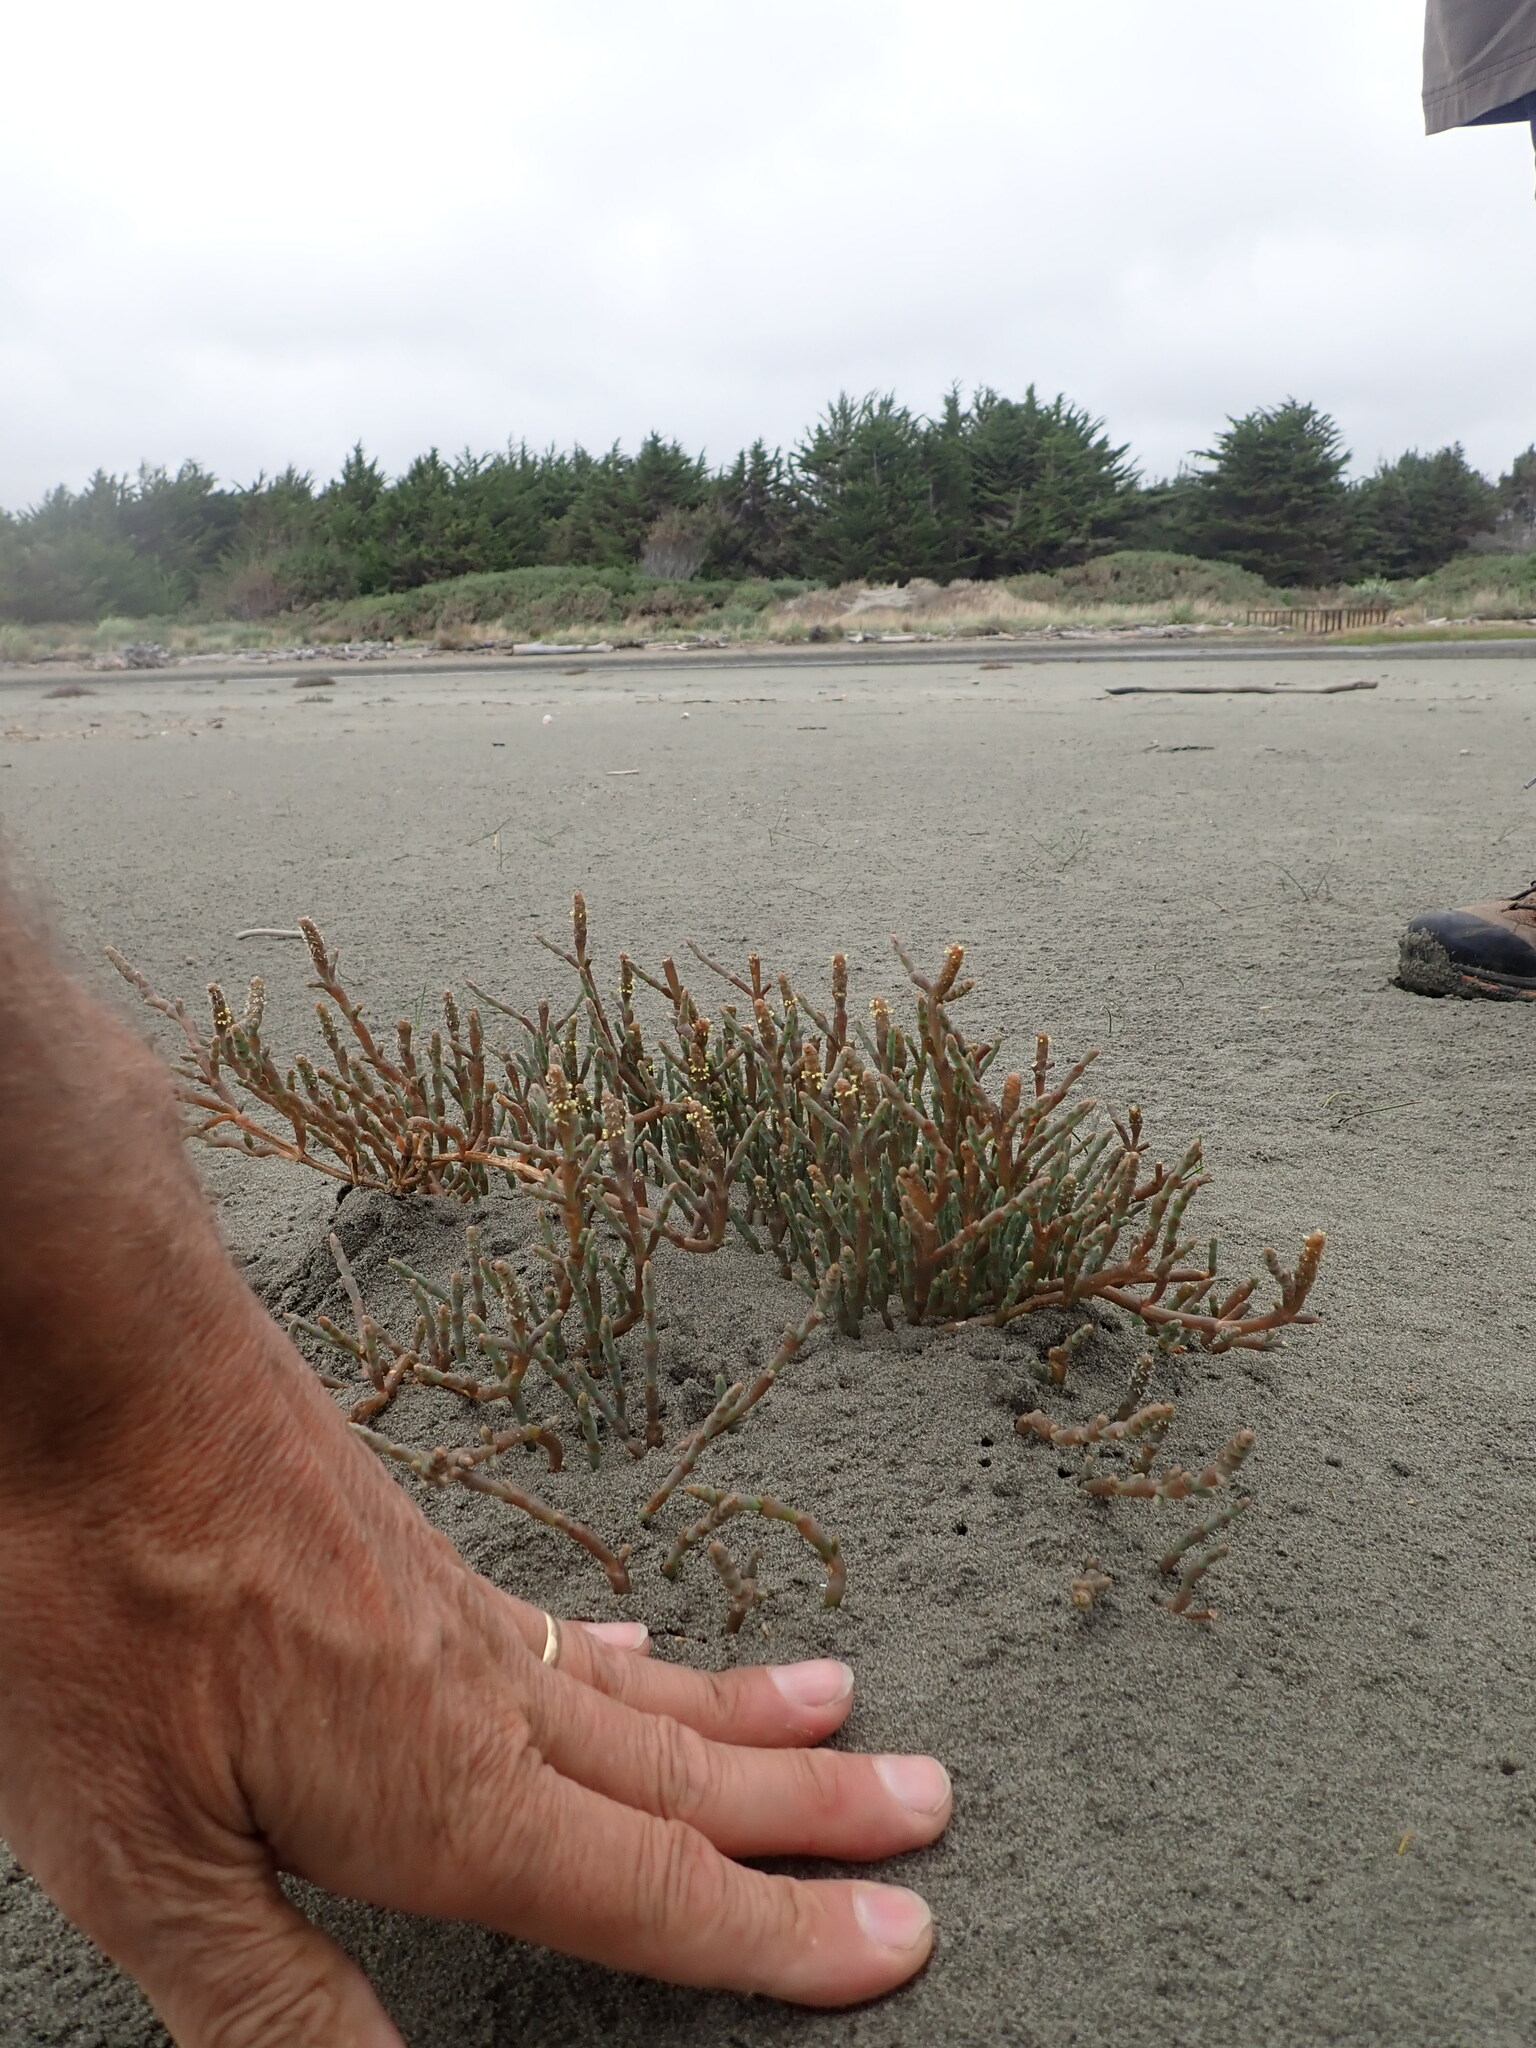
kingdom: Plantae
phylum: Tracheophyta
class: Magnoliopsida
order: Caryophyllales
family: Amaranthaceae
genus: Salicornia
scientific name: Salicornia quinqueflora
